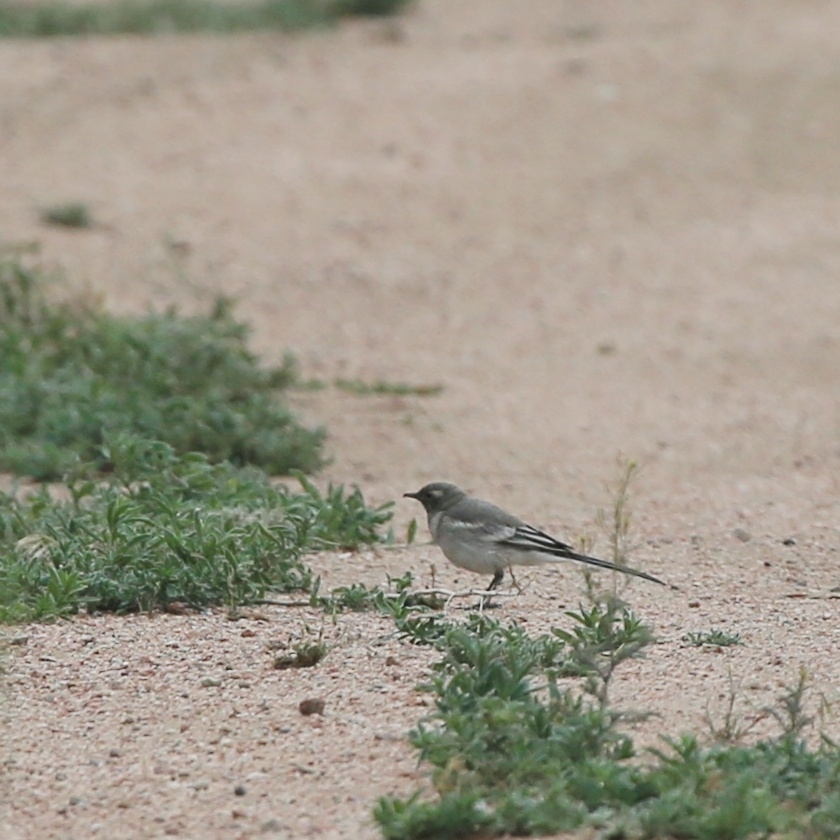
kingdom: Animalia
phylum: Chordata
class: Aves
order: Passeriformes
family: Motacillidae
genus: Motacilla
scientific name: Motacilla alba
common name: White wagtail
